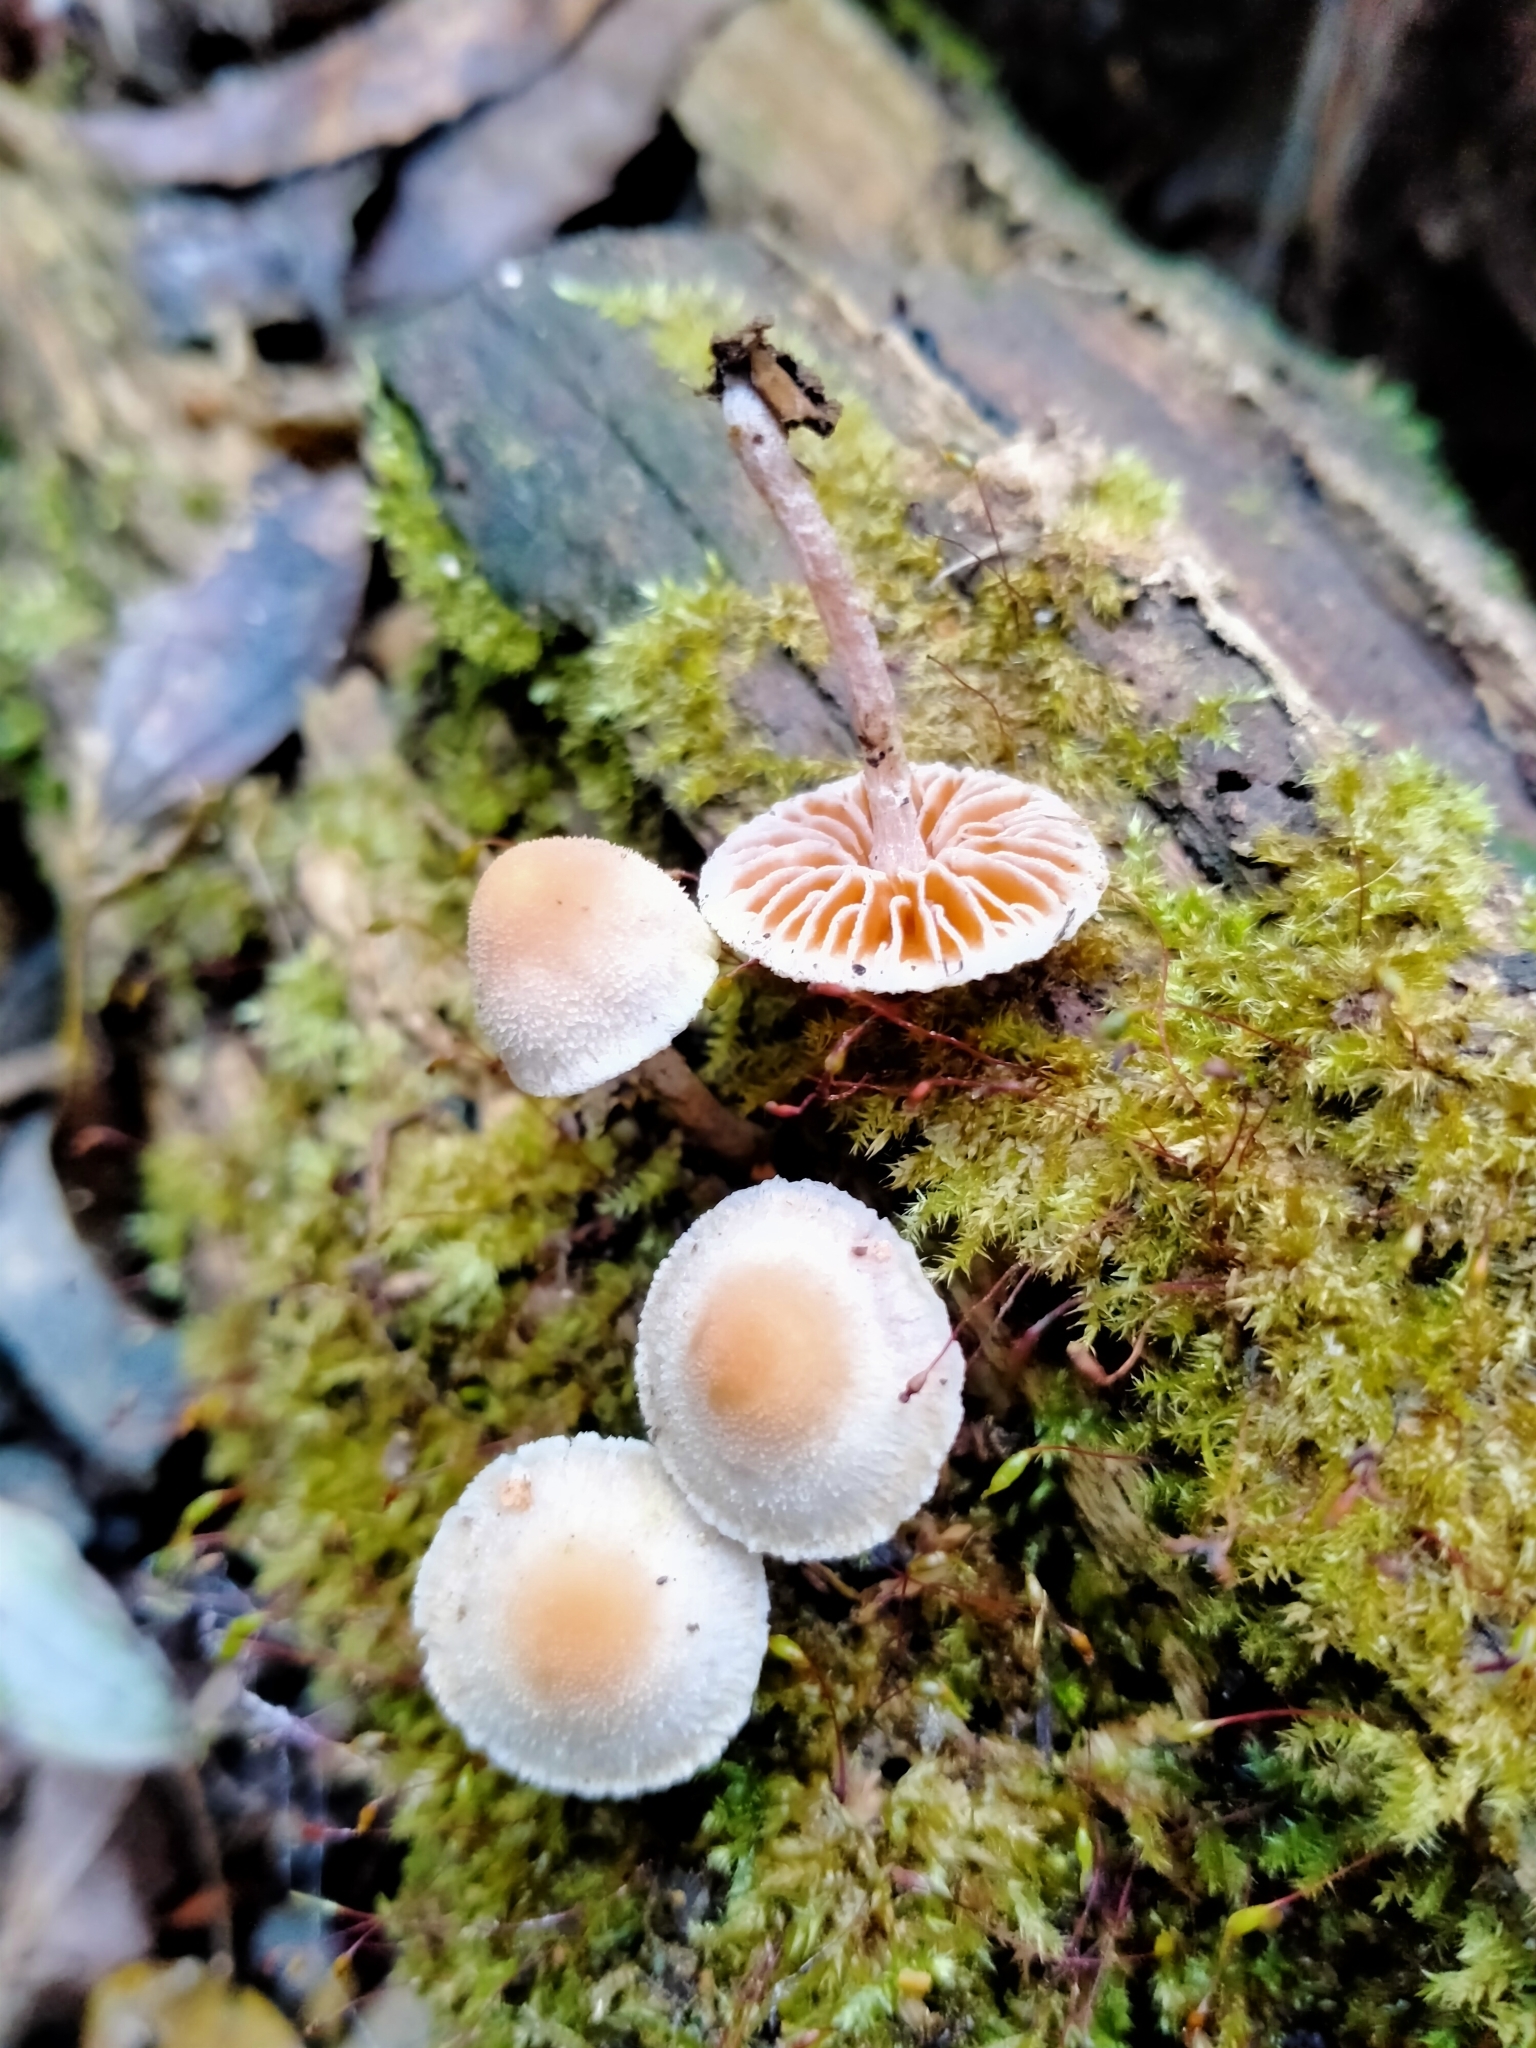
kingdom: Fungi
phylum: Basidiomycota
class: Agaricomycetes
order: Agaricales
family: Bolbitiaceae
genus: Tympanella
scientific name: Tympanella galanthina
